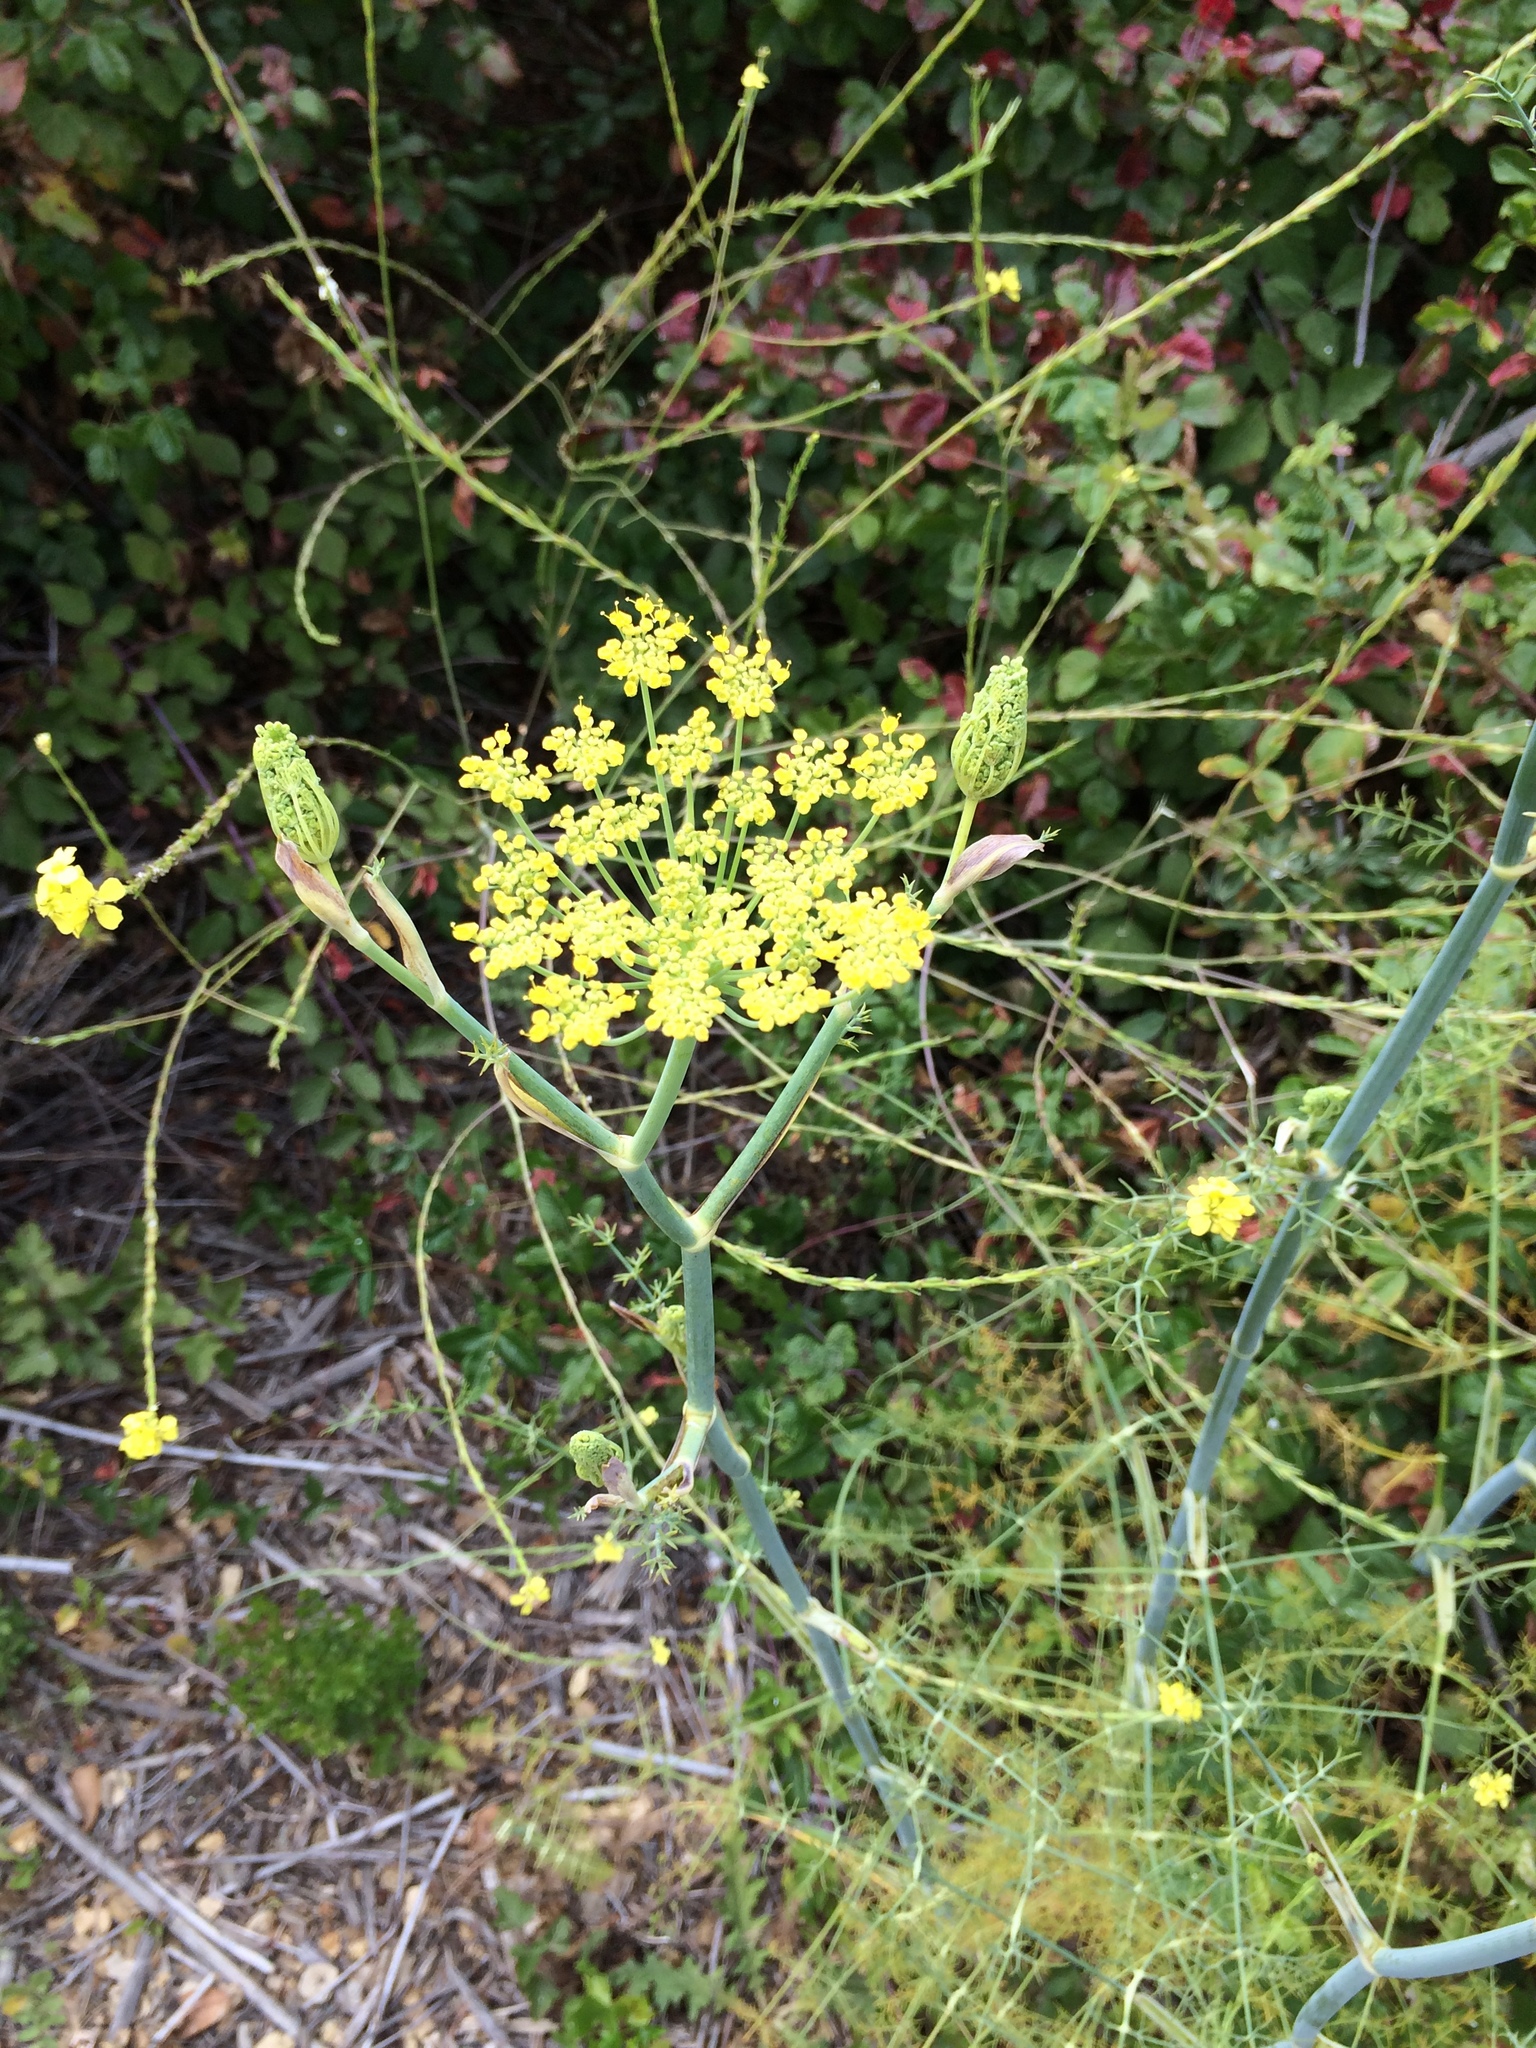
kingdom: Plantae
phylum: Tracheophyta
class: Magnoliopsida
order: Apiales
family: Apiaceae
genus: Foeniculum
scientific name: Foeniculum vulgare
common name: Fennel
